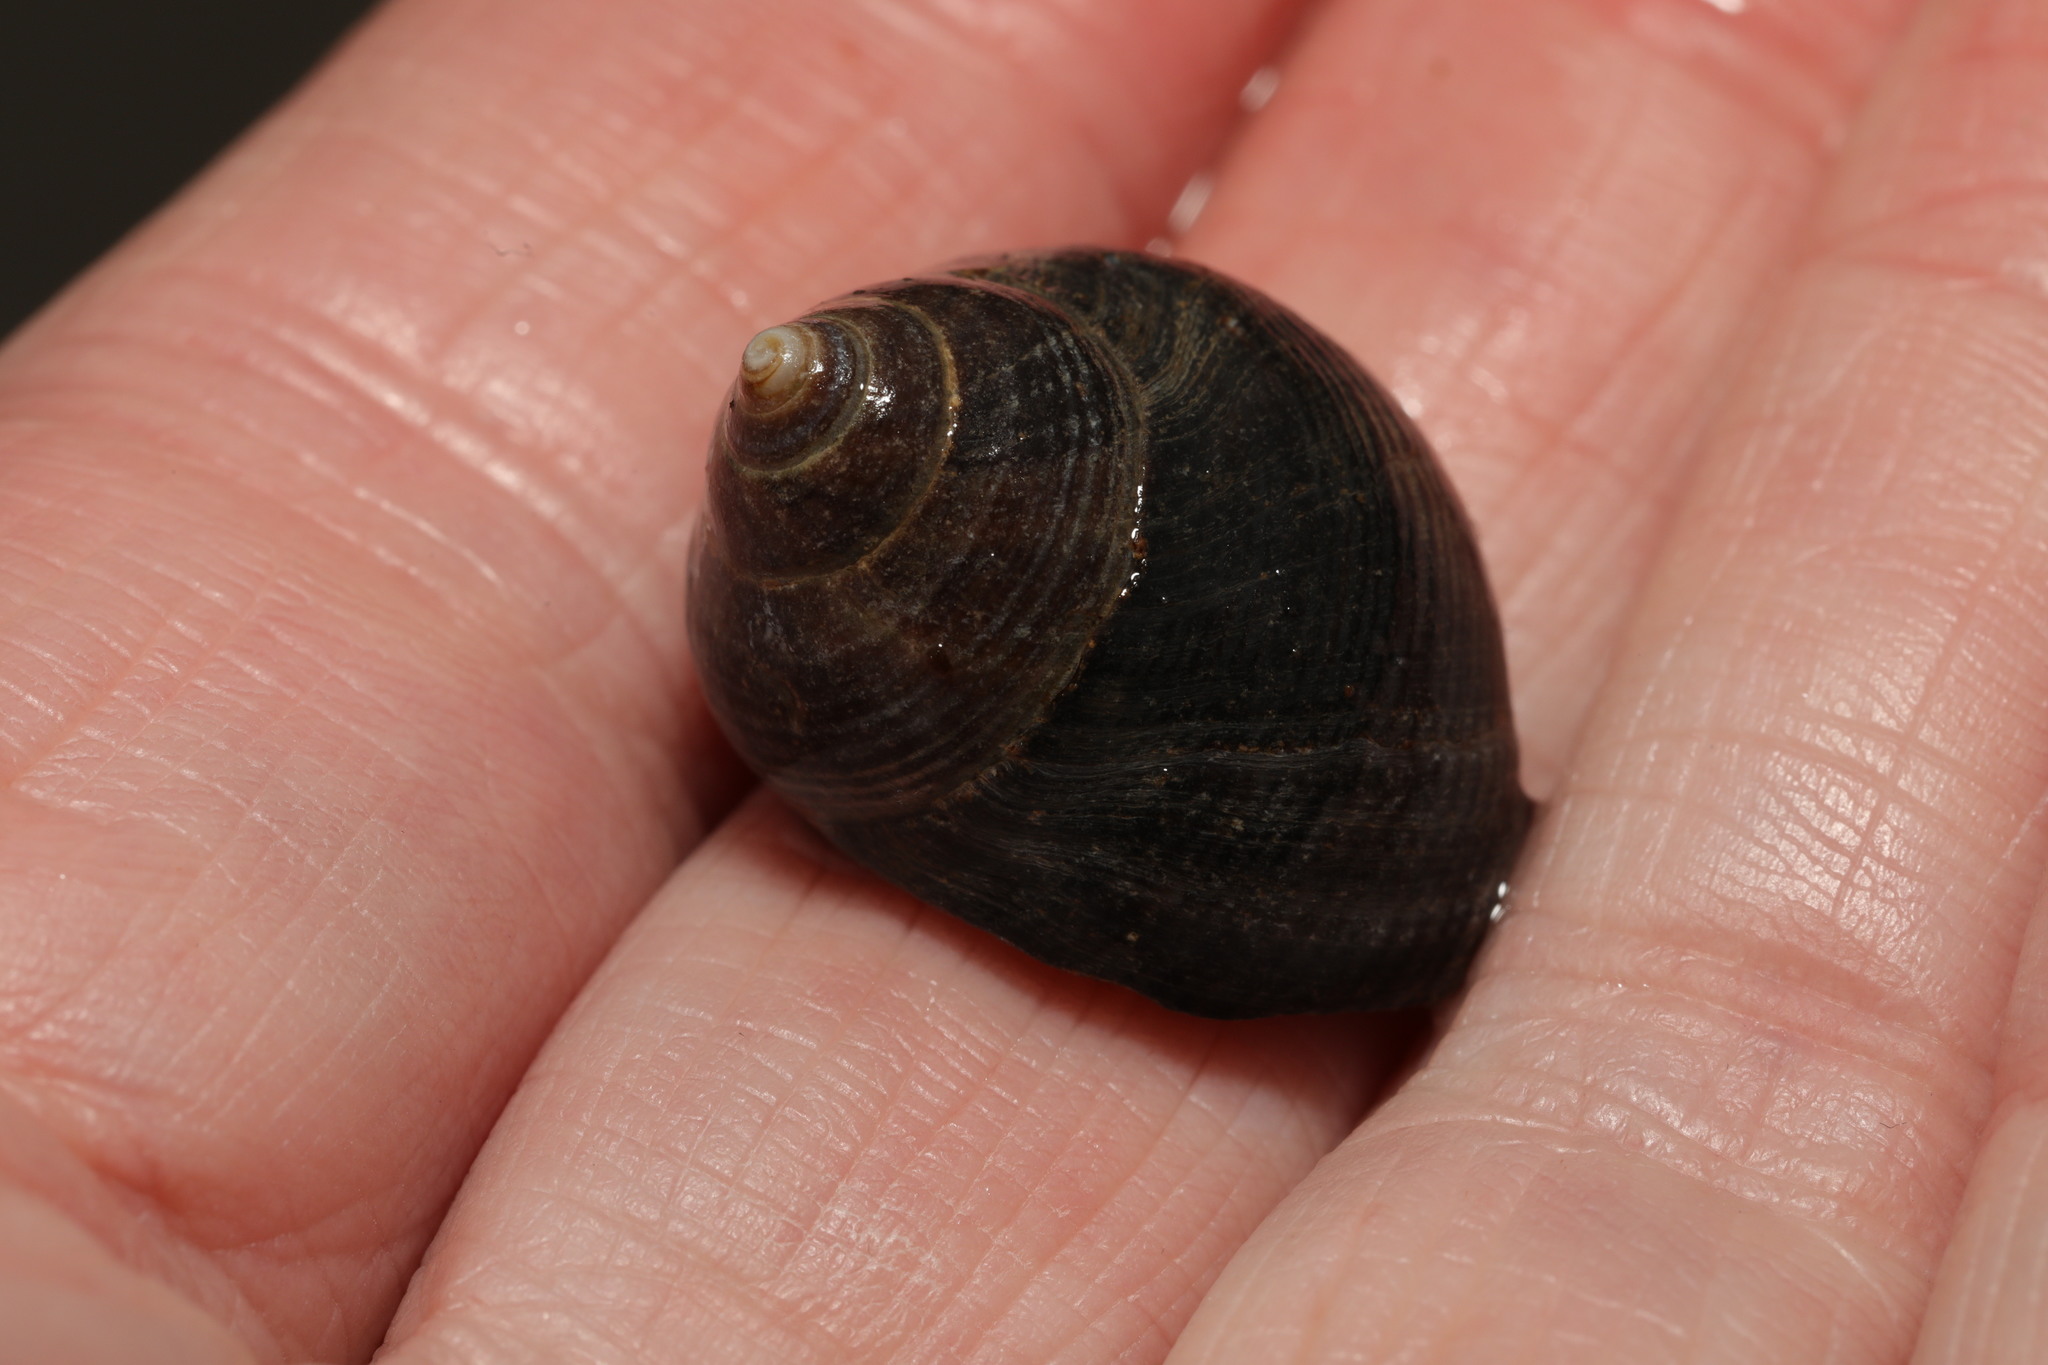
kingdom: Animalia
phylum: Mollusca
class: Gastropoda
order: Littorinimorpha
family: Littorinidae
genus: Littorina
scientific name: Littorina littorea
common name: Common periwinkle
